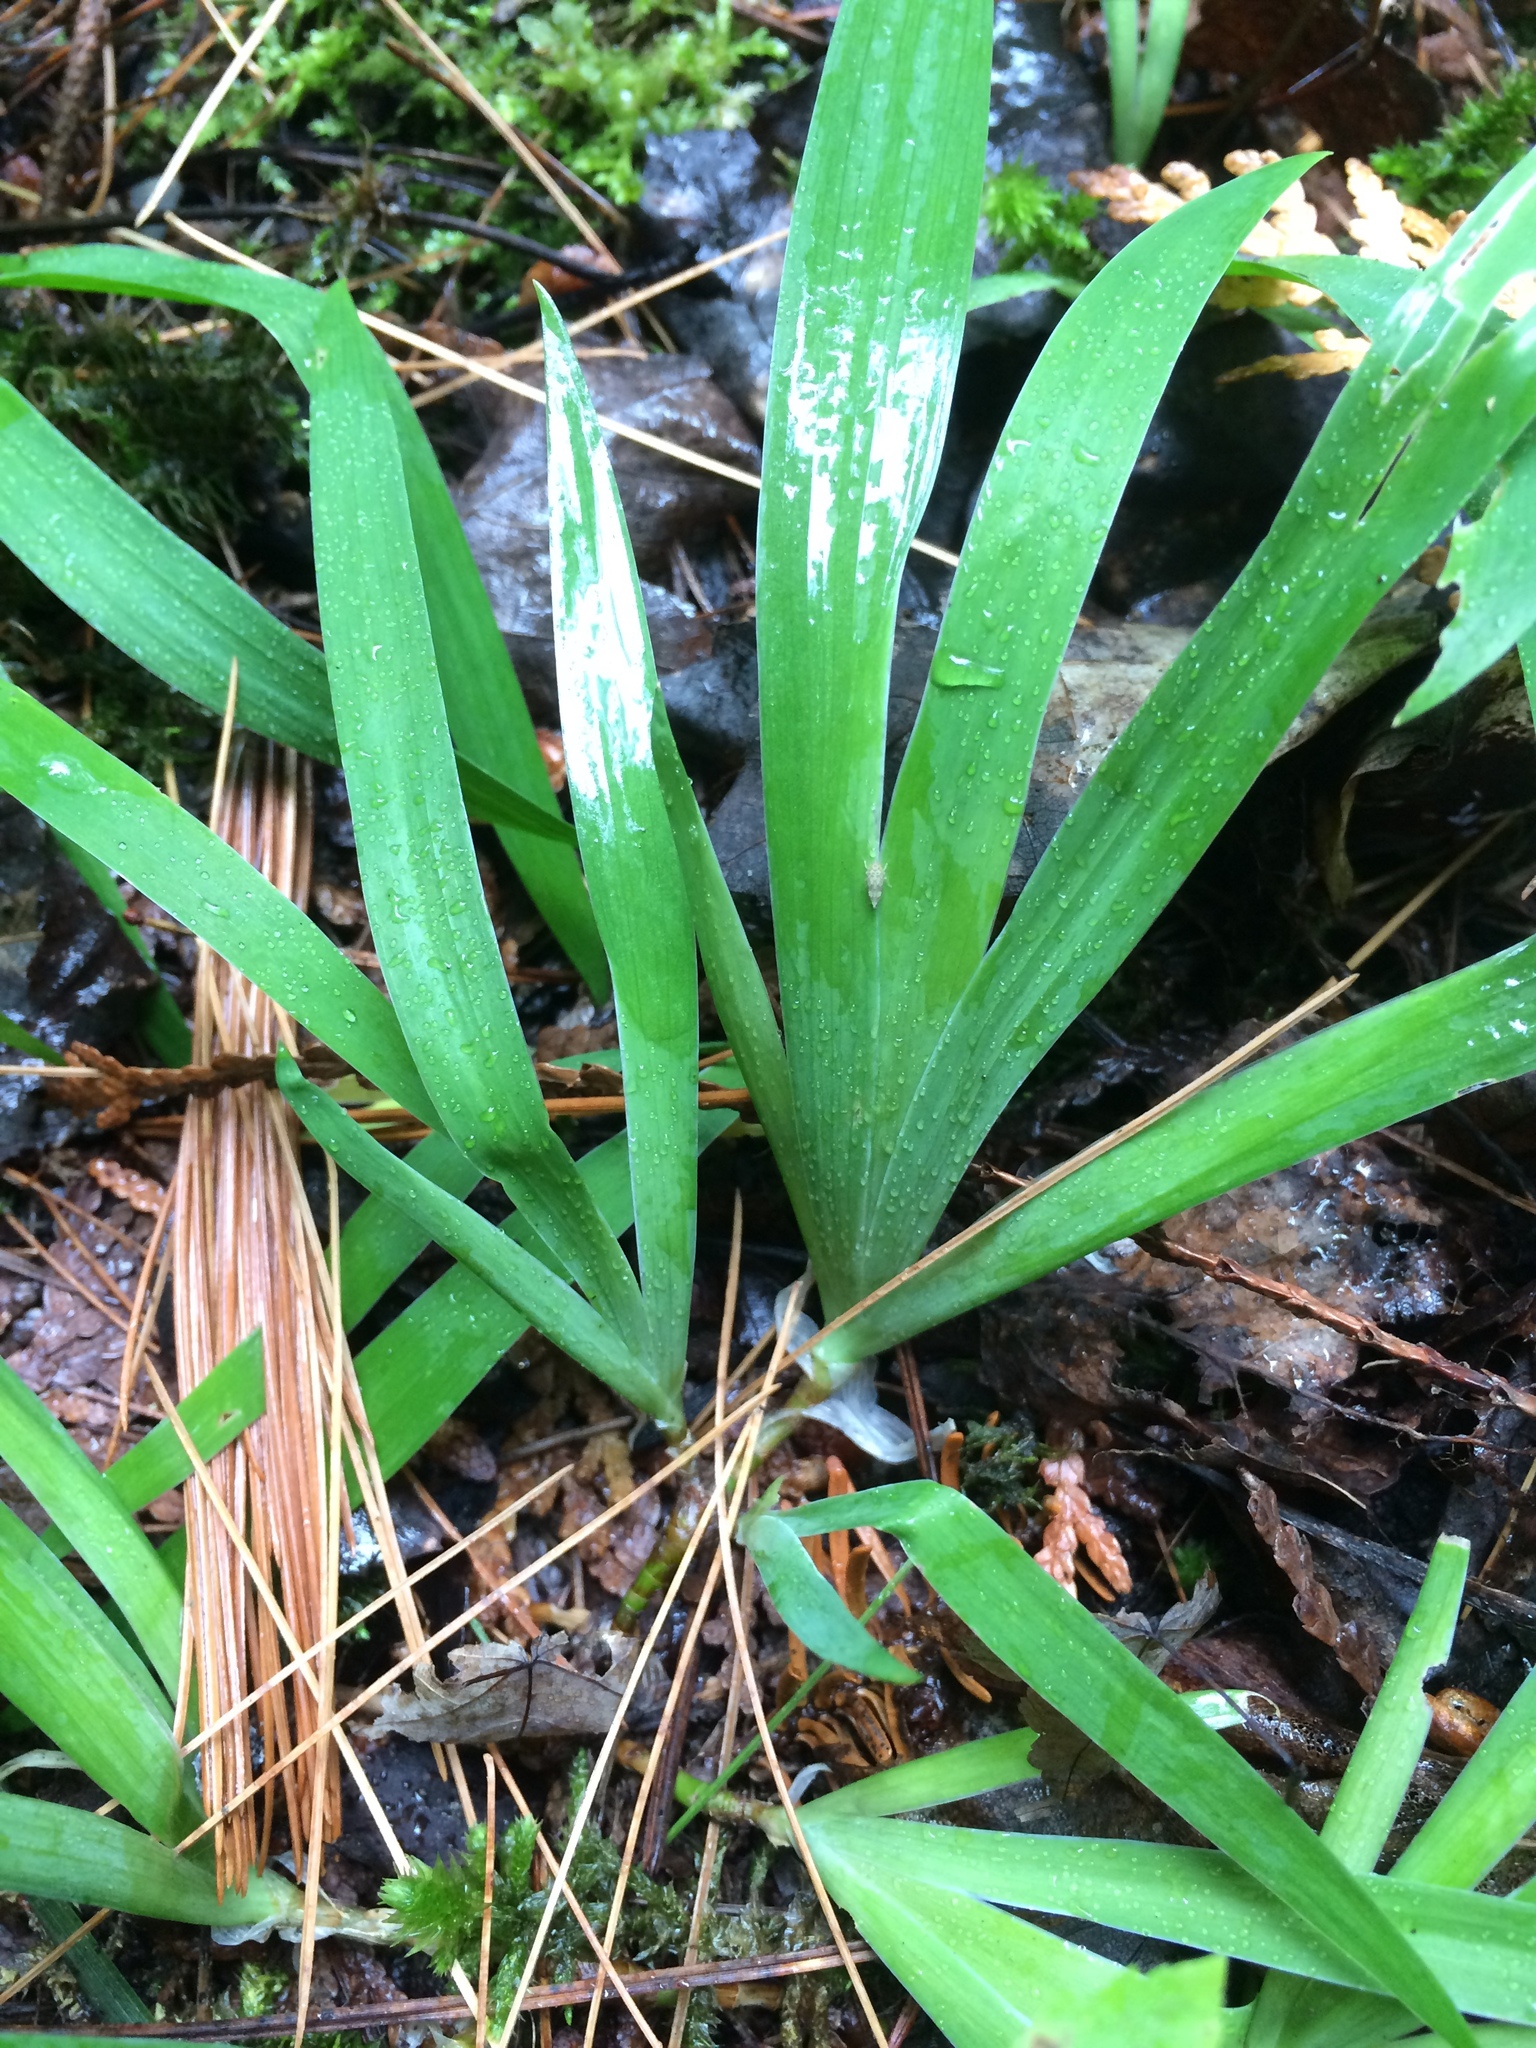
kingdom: Plantae
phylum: Tracheophyta
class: Liliopsida
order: Asparagales
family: Iridaceae
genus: Iris
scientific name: Iris lacustris
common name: Dwarf lake iris
